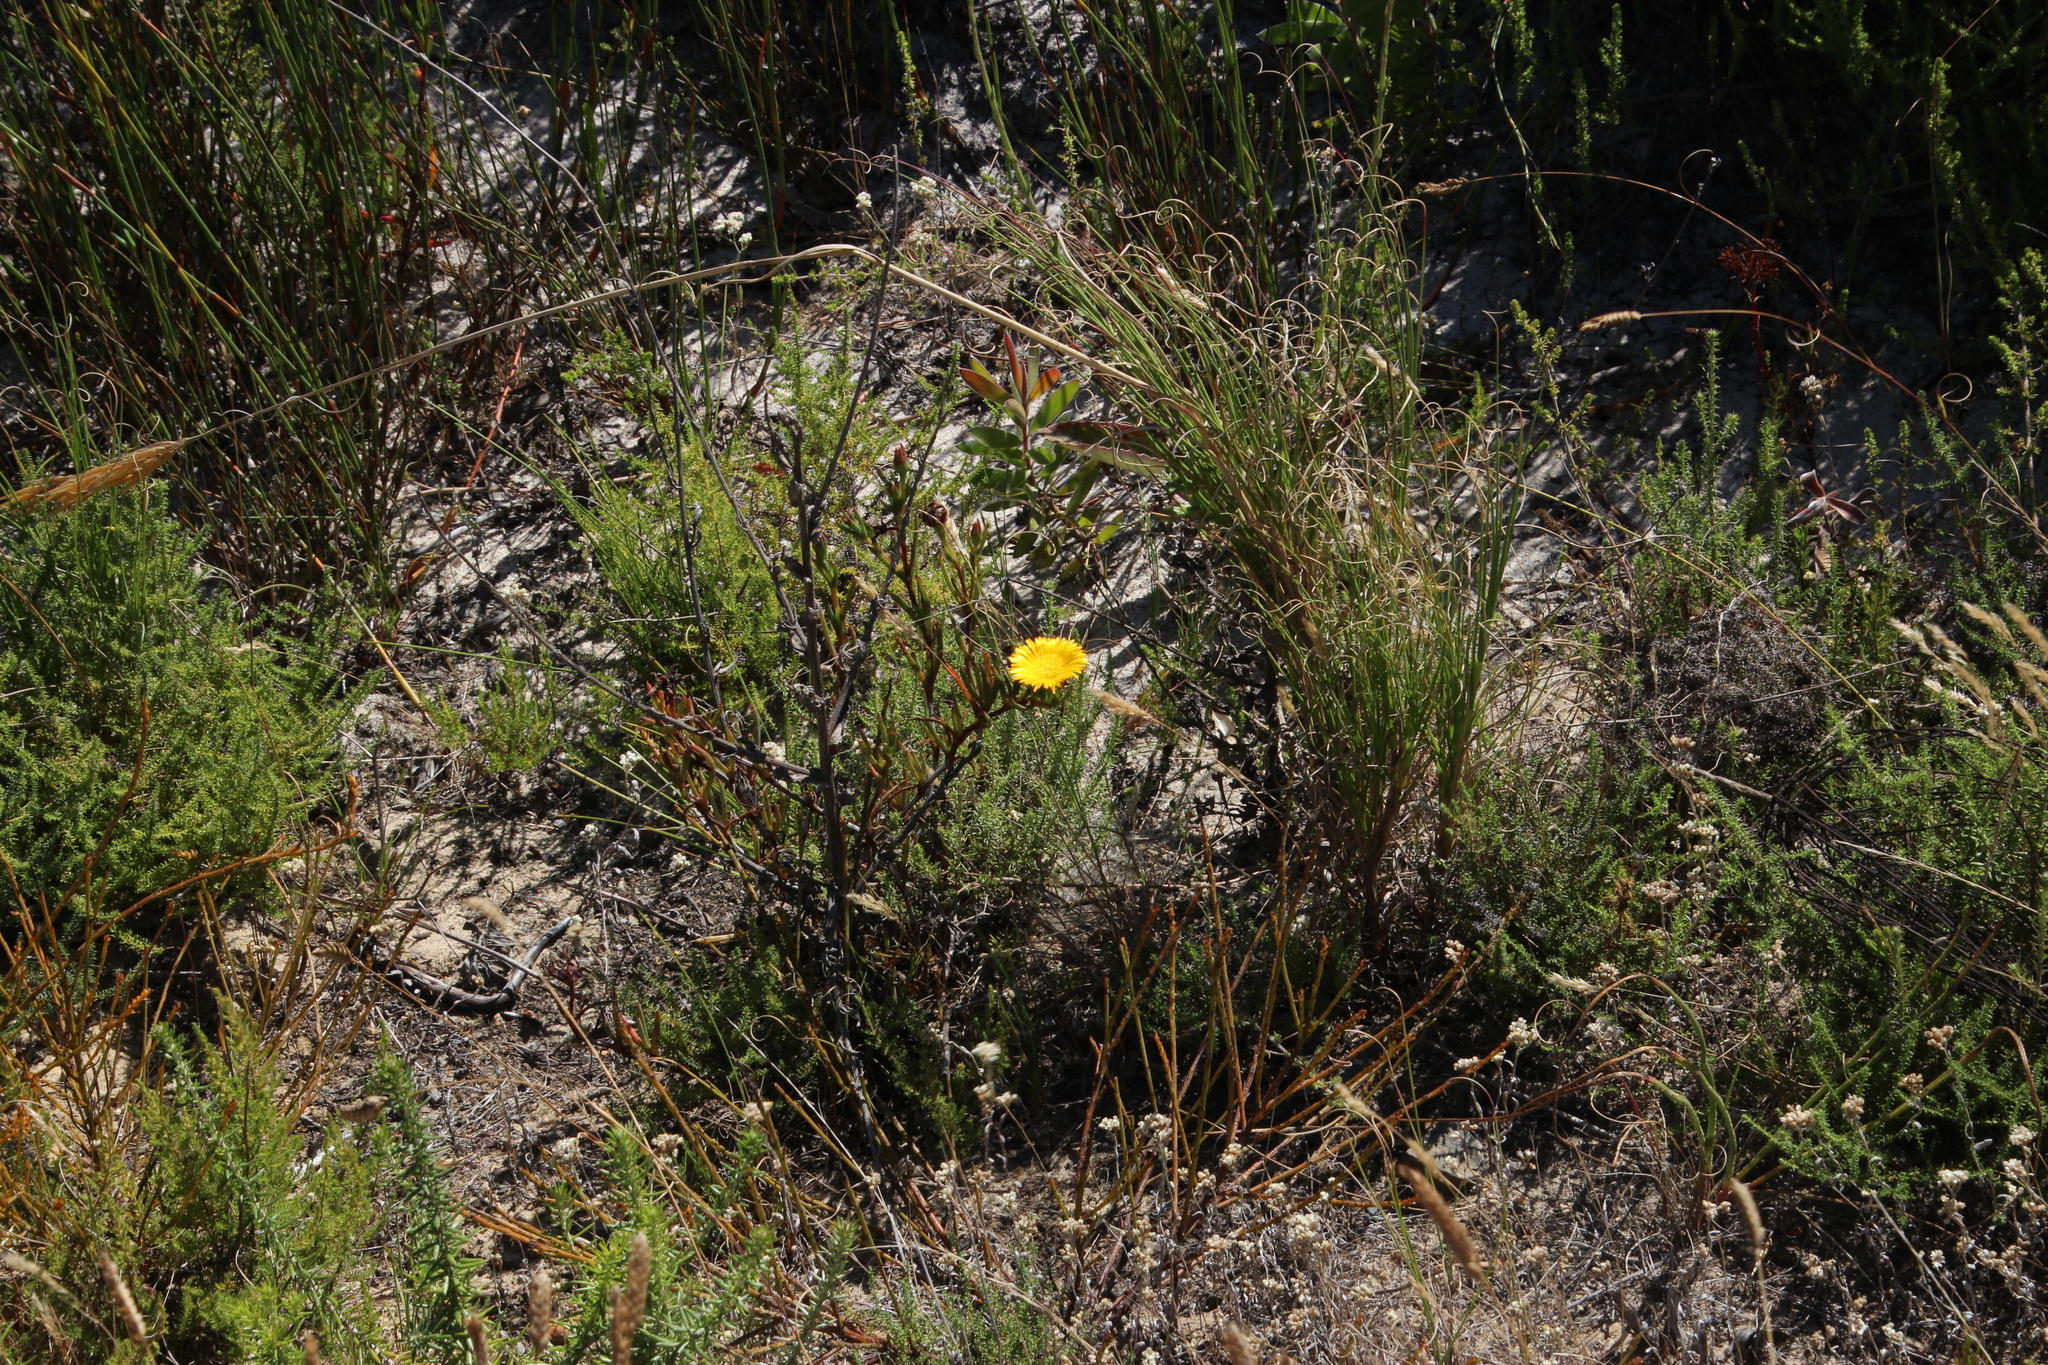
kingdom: Plantae
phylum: Tracheophyta
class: Magnoliopsida
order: Caryophyllales
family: Aizoaceae
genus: Lampranthus
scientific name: Lampranthus bicolor
